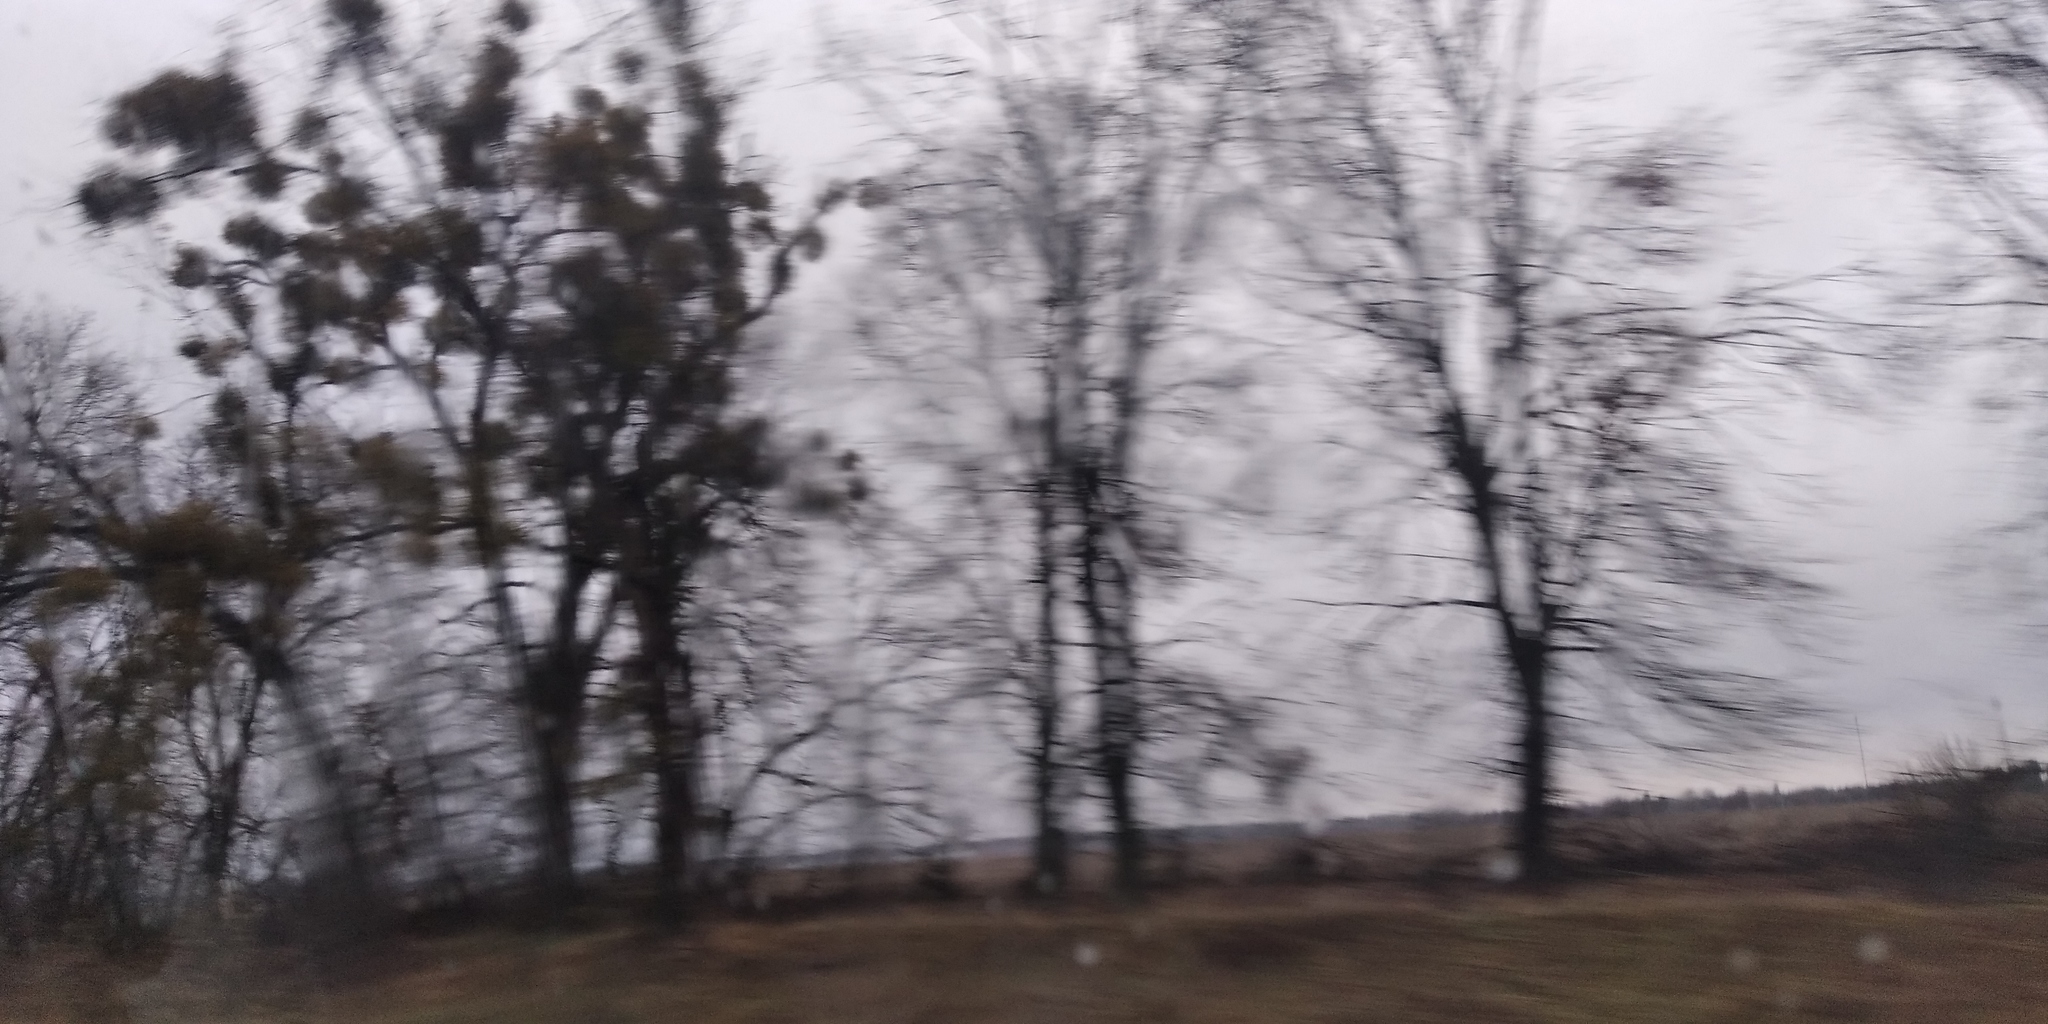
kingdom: Plantae
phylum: Tracheophyta
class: Magnoliopsida
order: Santalales
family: Viscaceae
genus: Viscum
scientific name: Viscum album
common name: Mistletoe
